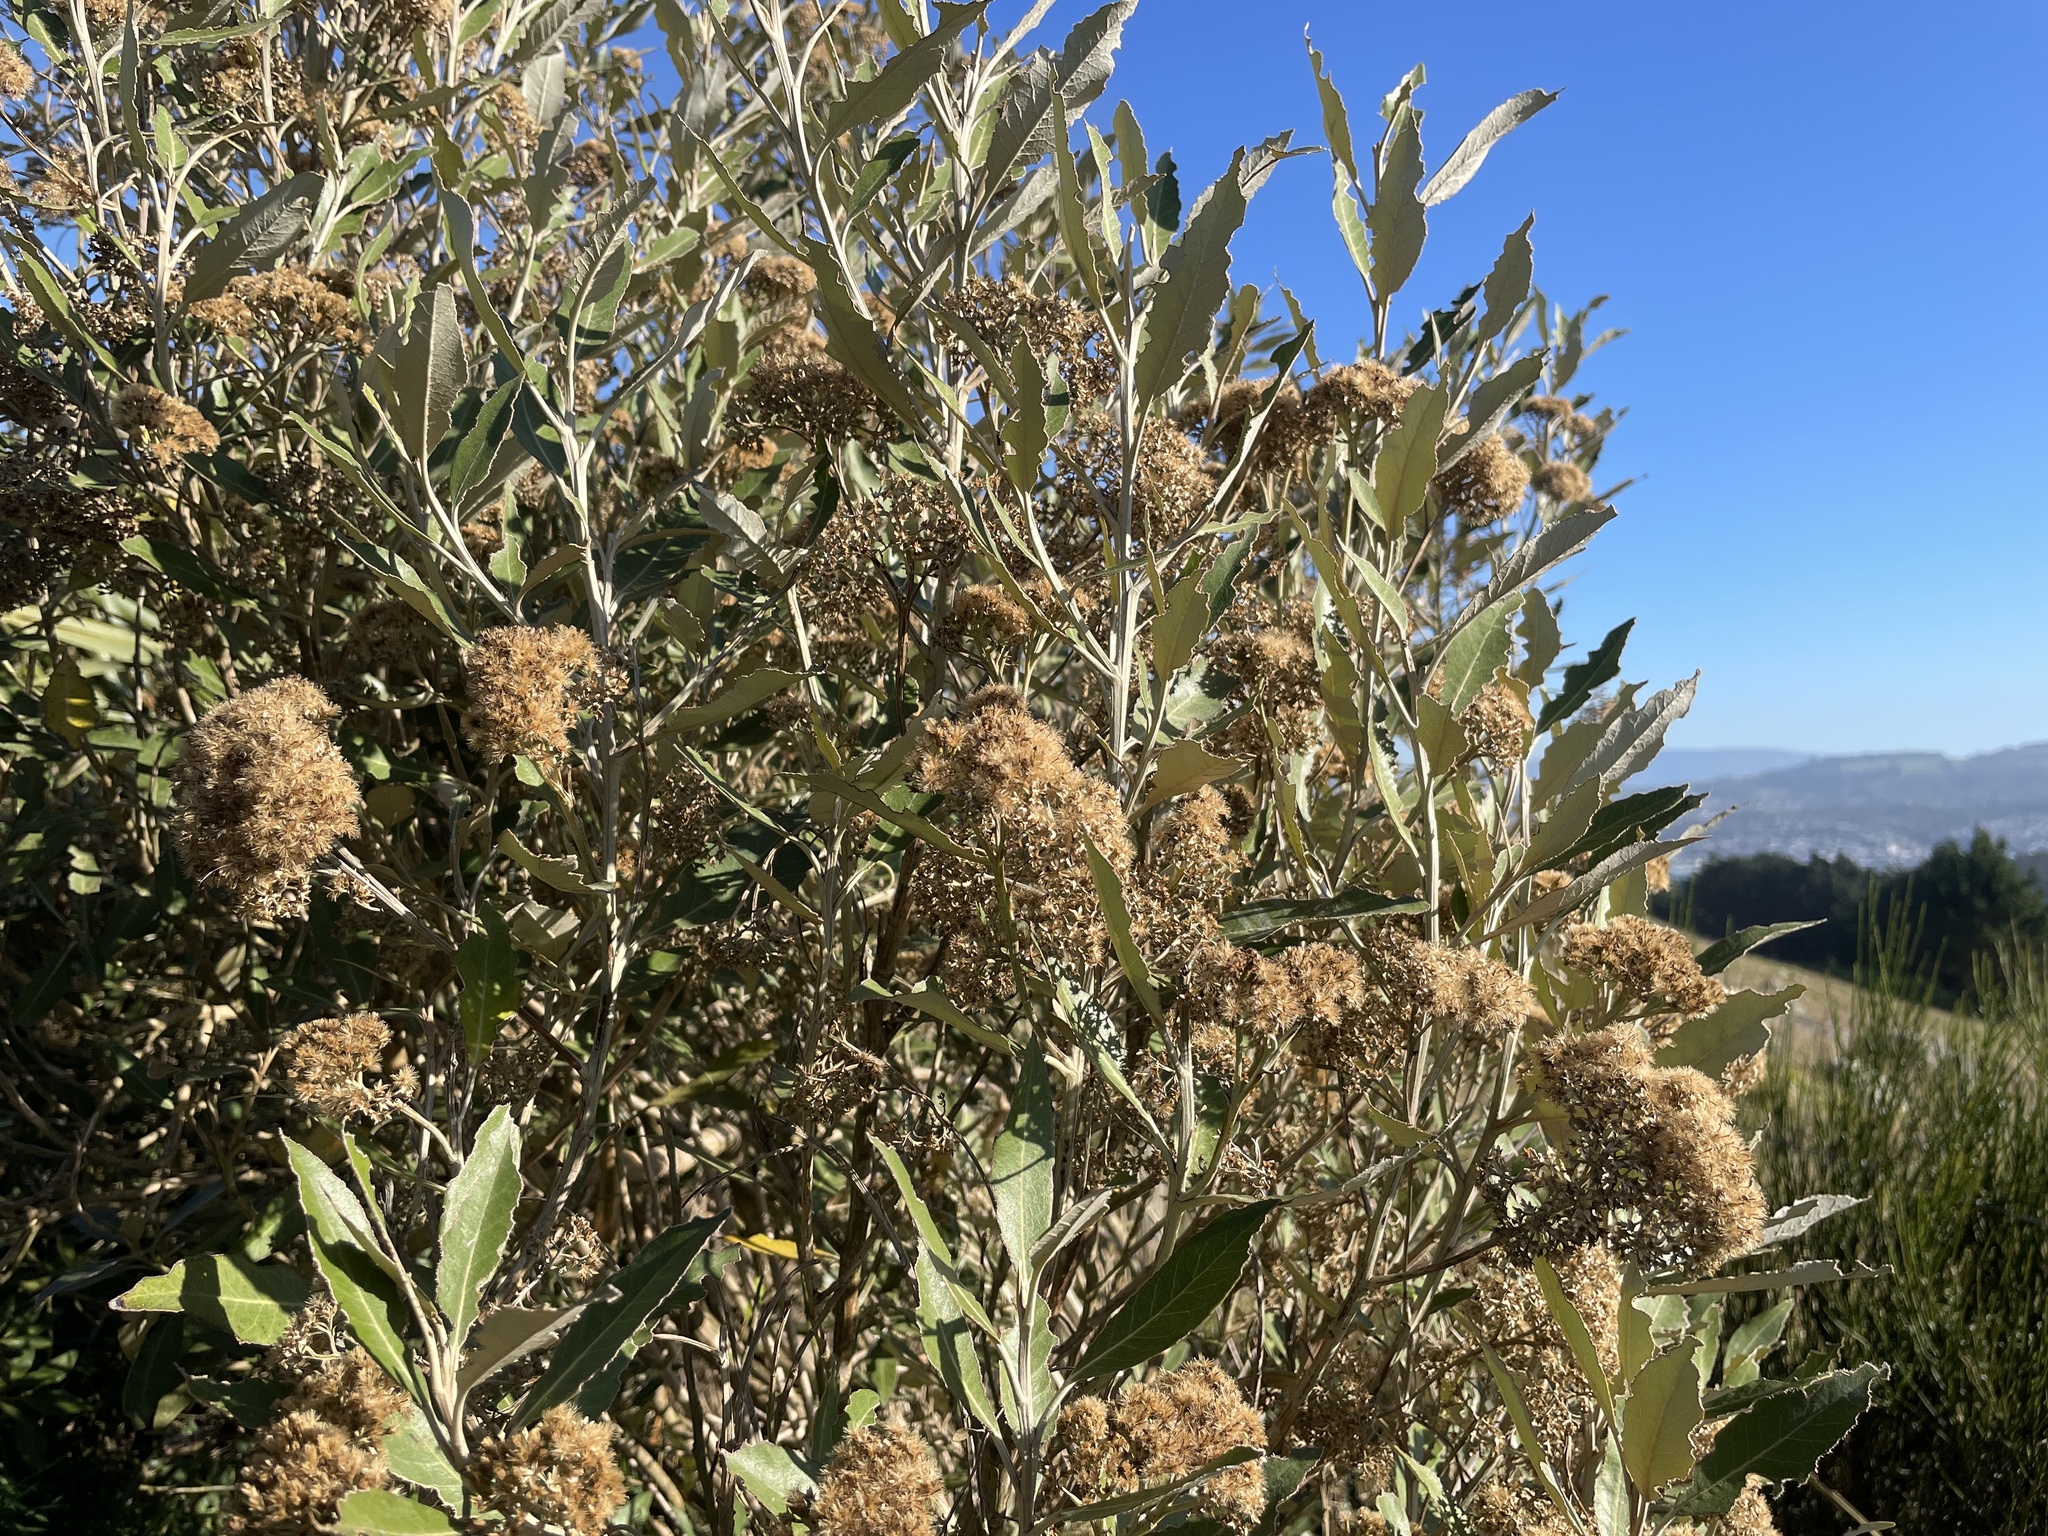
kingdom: Plantae
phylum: Tracheophyta
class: Magnoliopsida
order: Asterales
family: Asteraceae
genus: Olearia
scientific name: Olearia avicenniifolia
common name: Mangrove-leaf daisybush
